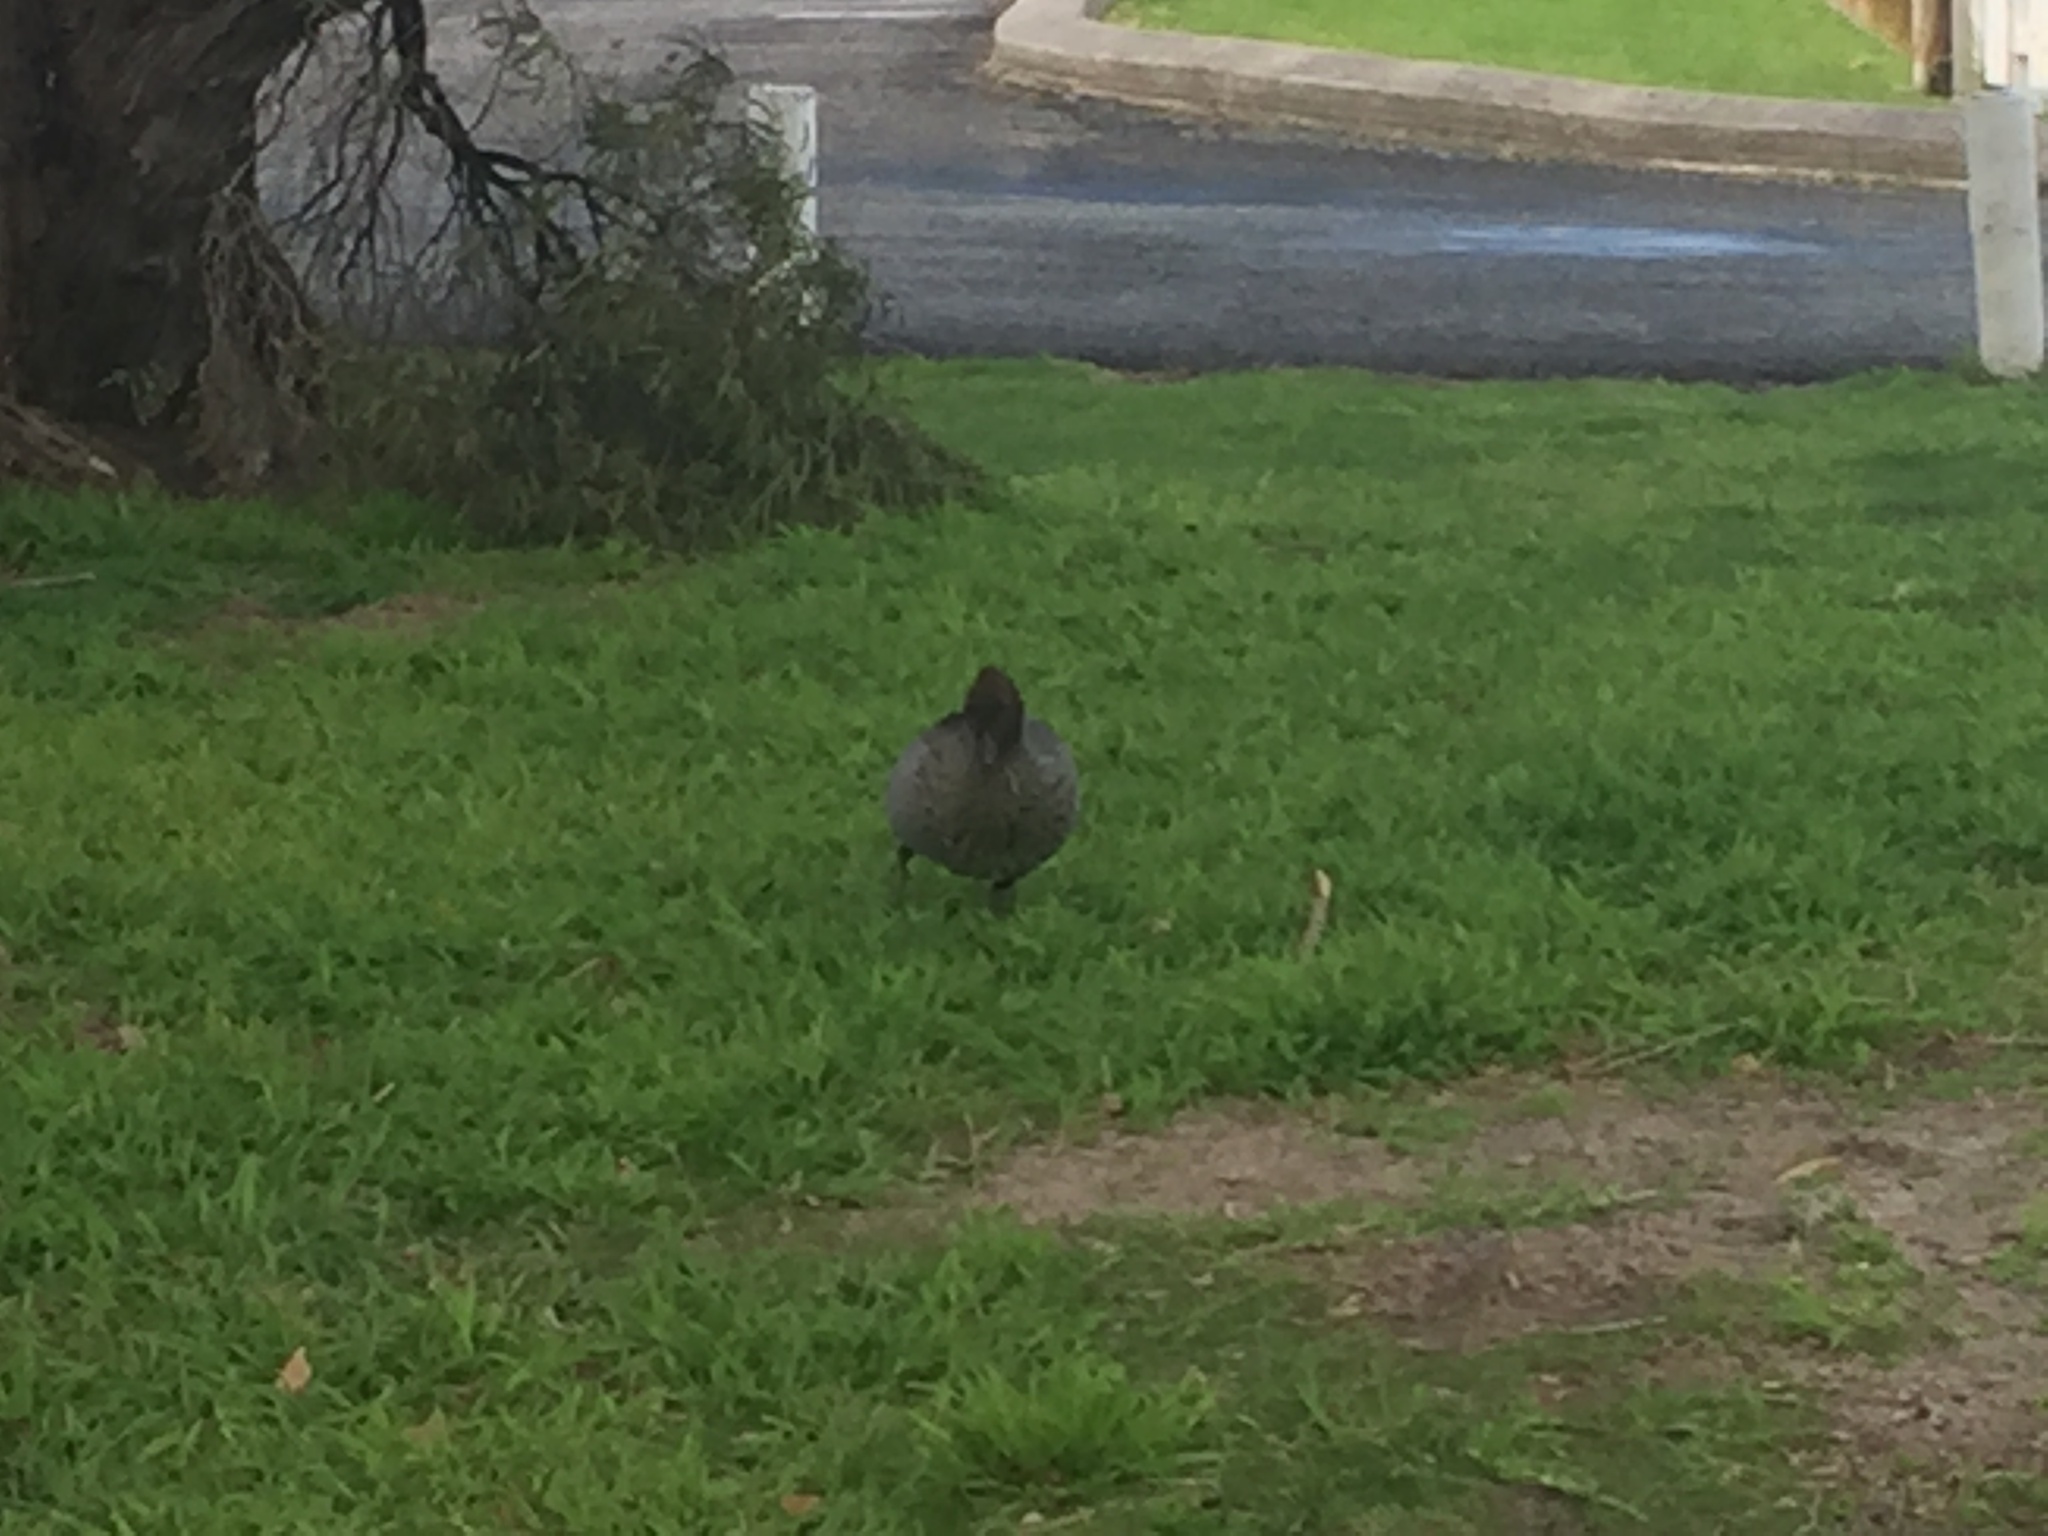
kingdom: Animalia
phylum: Chordata
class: Aves
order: Anseriformes
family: Anatidae
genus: Chenonetta
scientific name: Chenonetta jubata
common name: Maned duck
